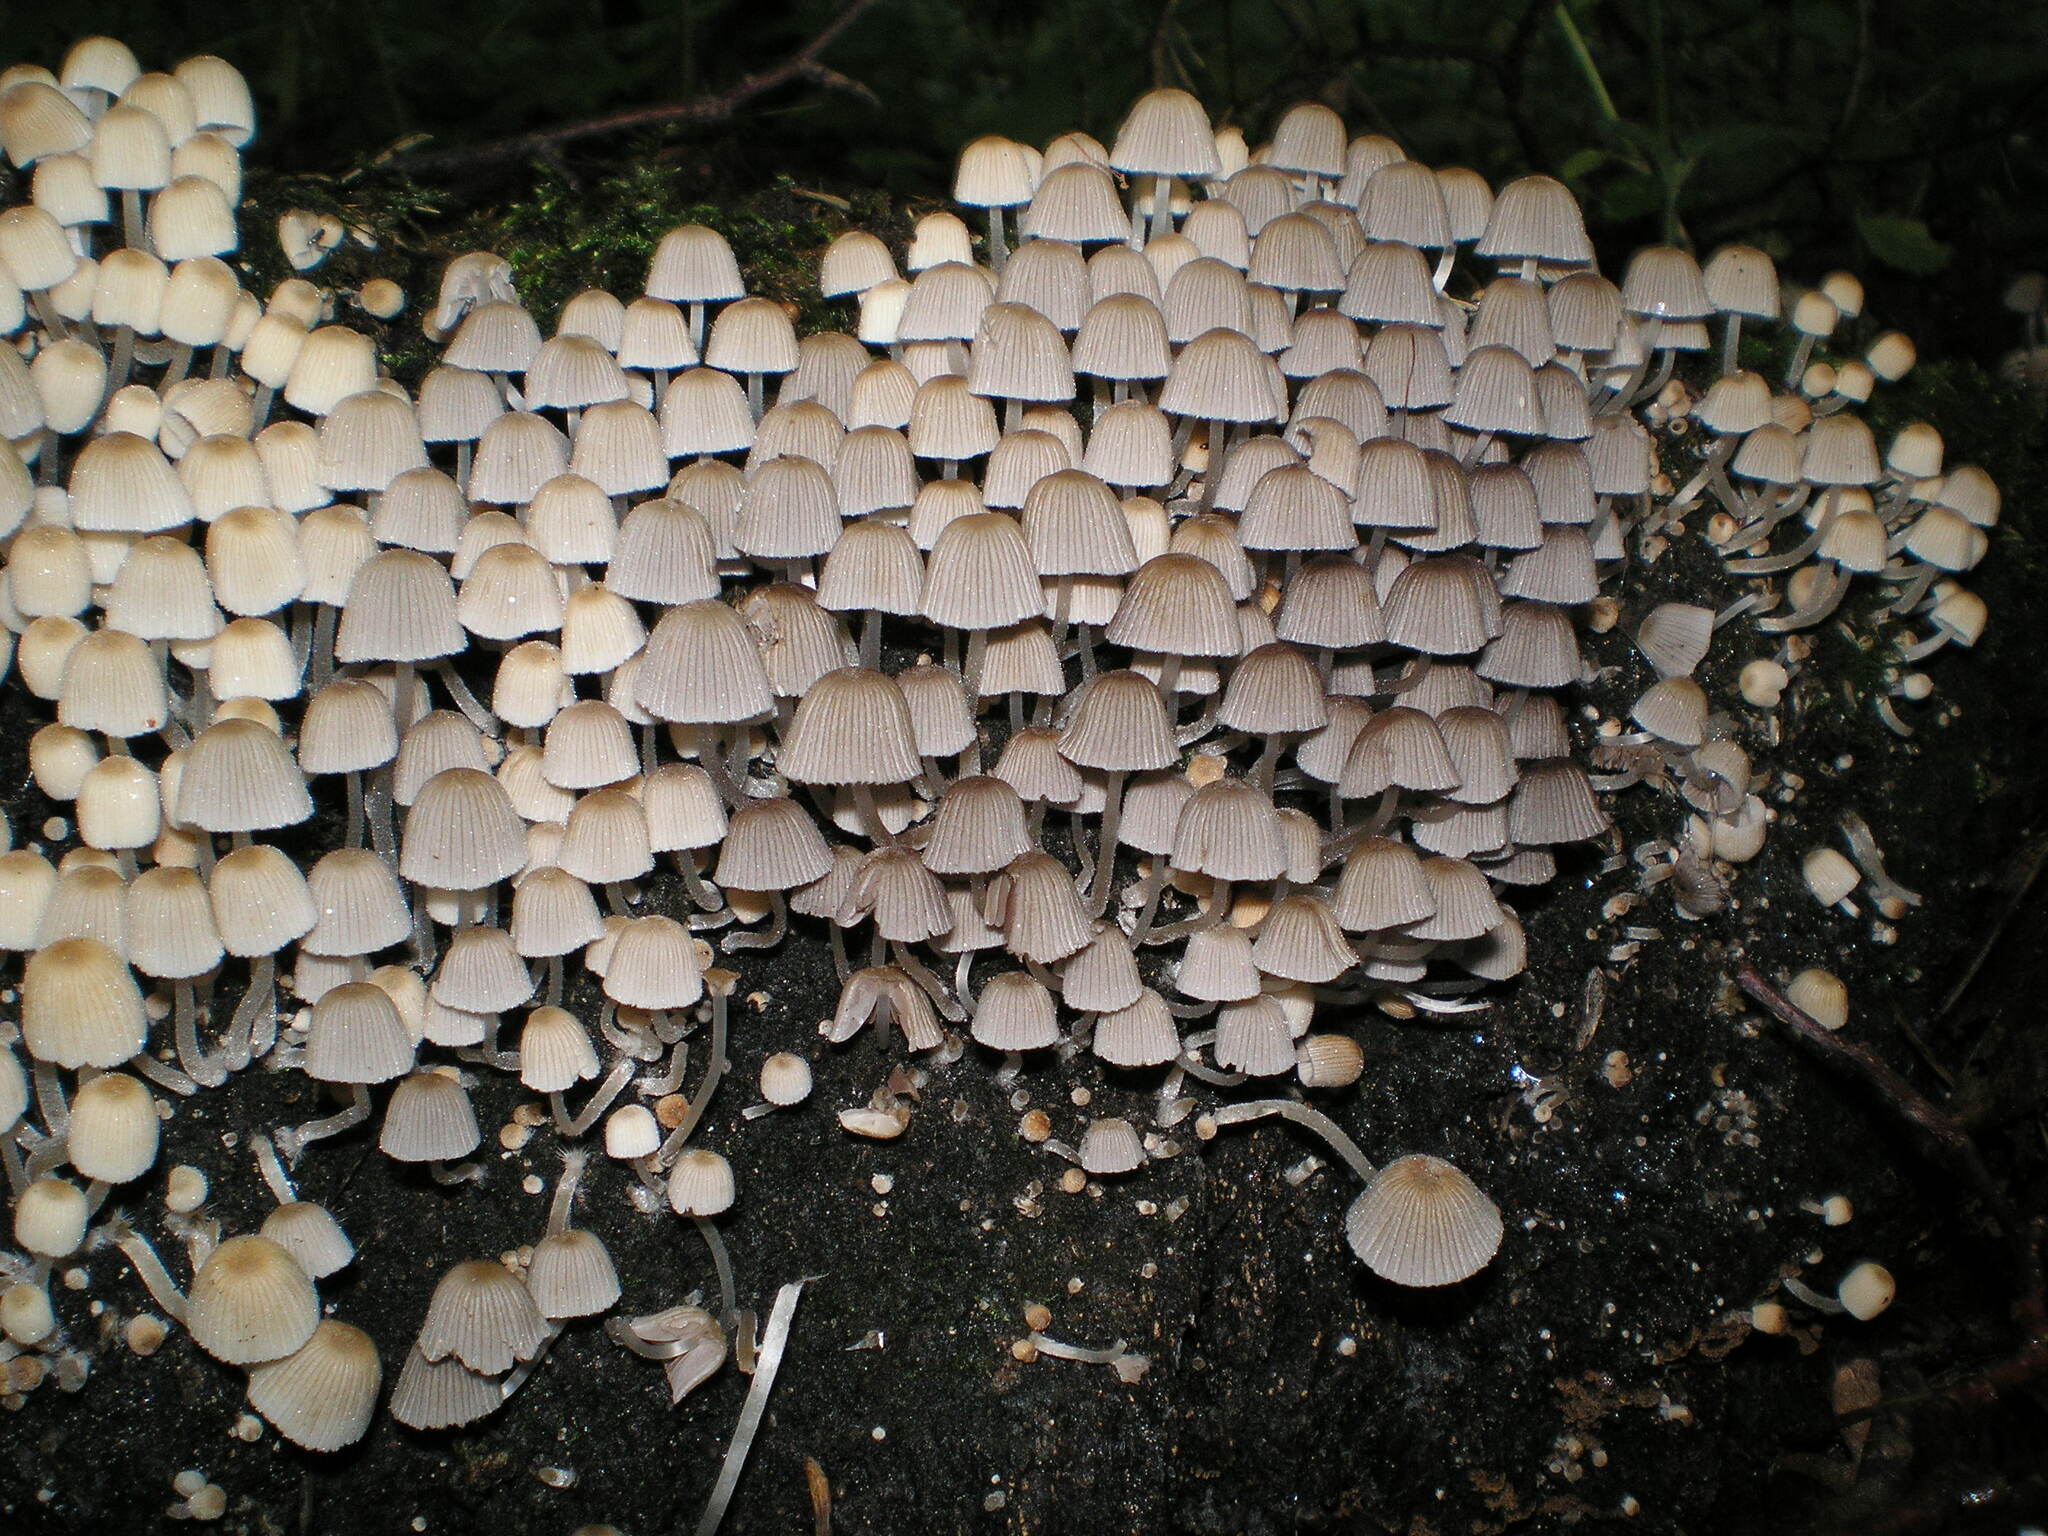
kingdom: Fungi
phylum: Basidiomycota
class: Agaricomycetes
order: Agaricales
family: Psathyrellaceae
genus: Coprinellus
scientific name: Coprinellus disseminatus
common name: Fairies' bonnets
